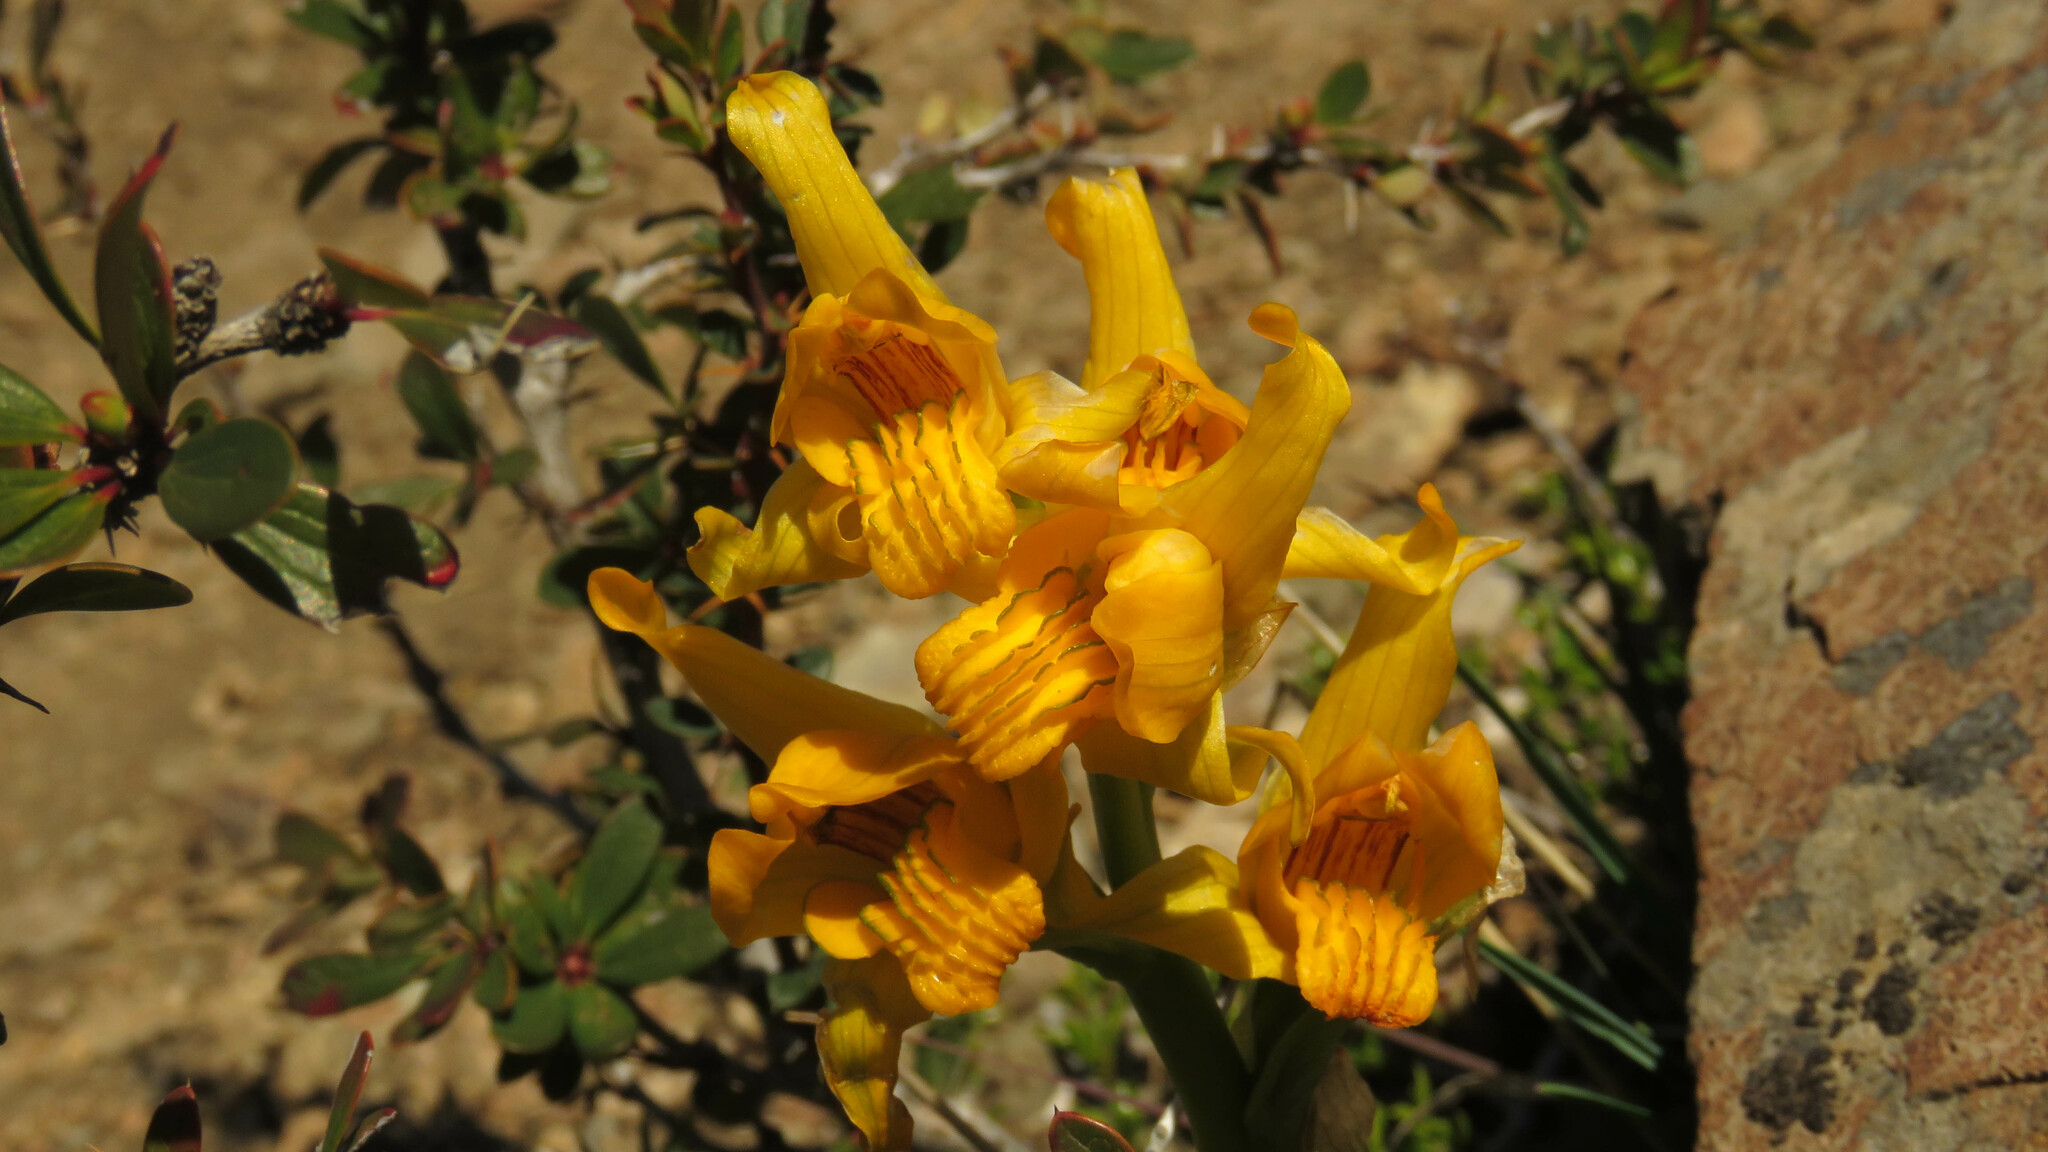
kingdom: Plantae
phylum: Tracheophyta
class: Liliopsida
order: Asparagales
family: Orchidaceae
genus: Chloraea
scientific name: Chloraea alpina
